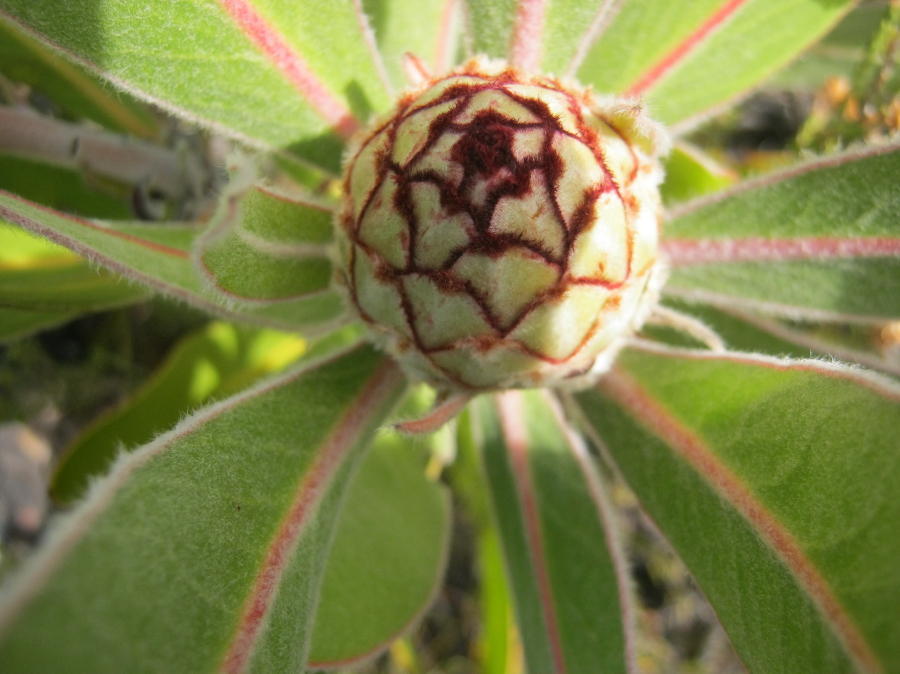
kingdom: Plantae
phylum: Tracheophyta
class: Magnoliopsida
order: Proteales
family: Proteaceae
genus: Protea
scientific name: Protea lorifolia
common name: Strap-leaved protea
